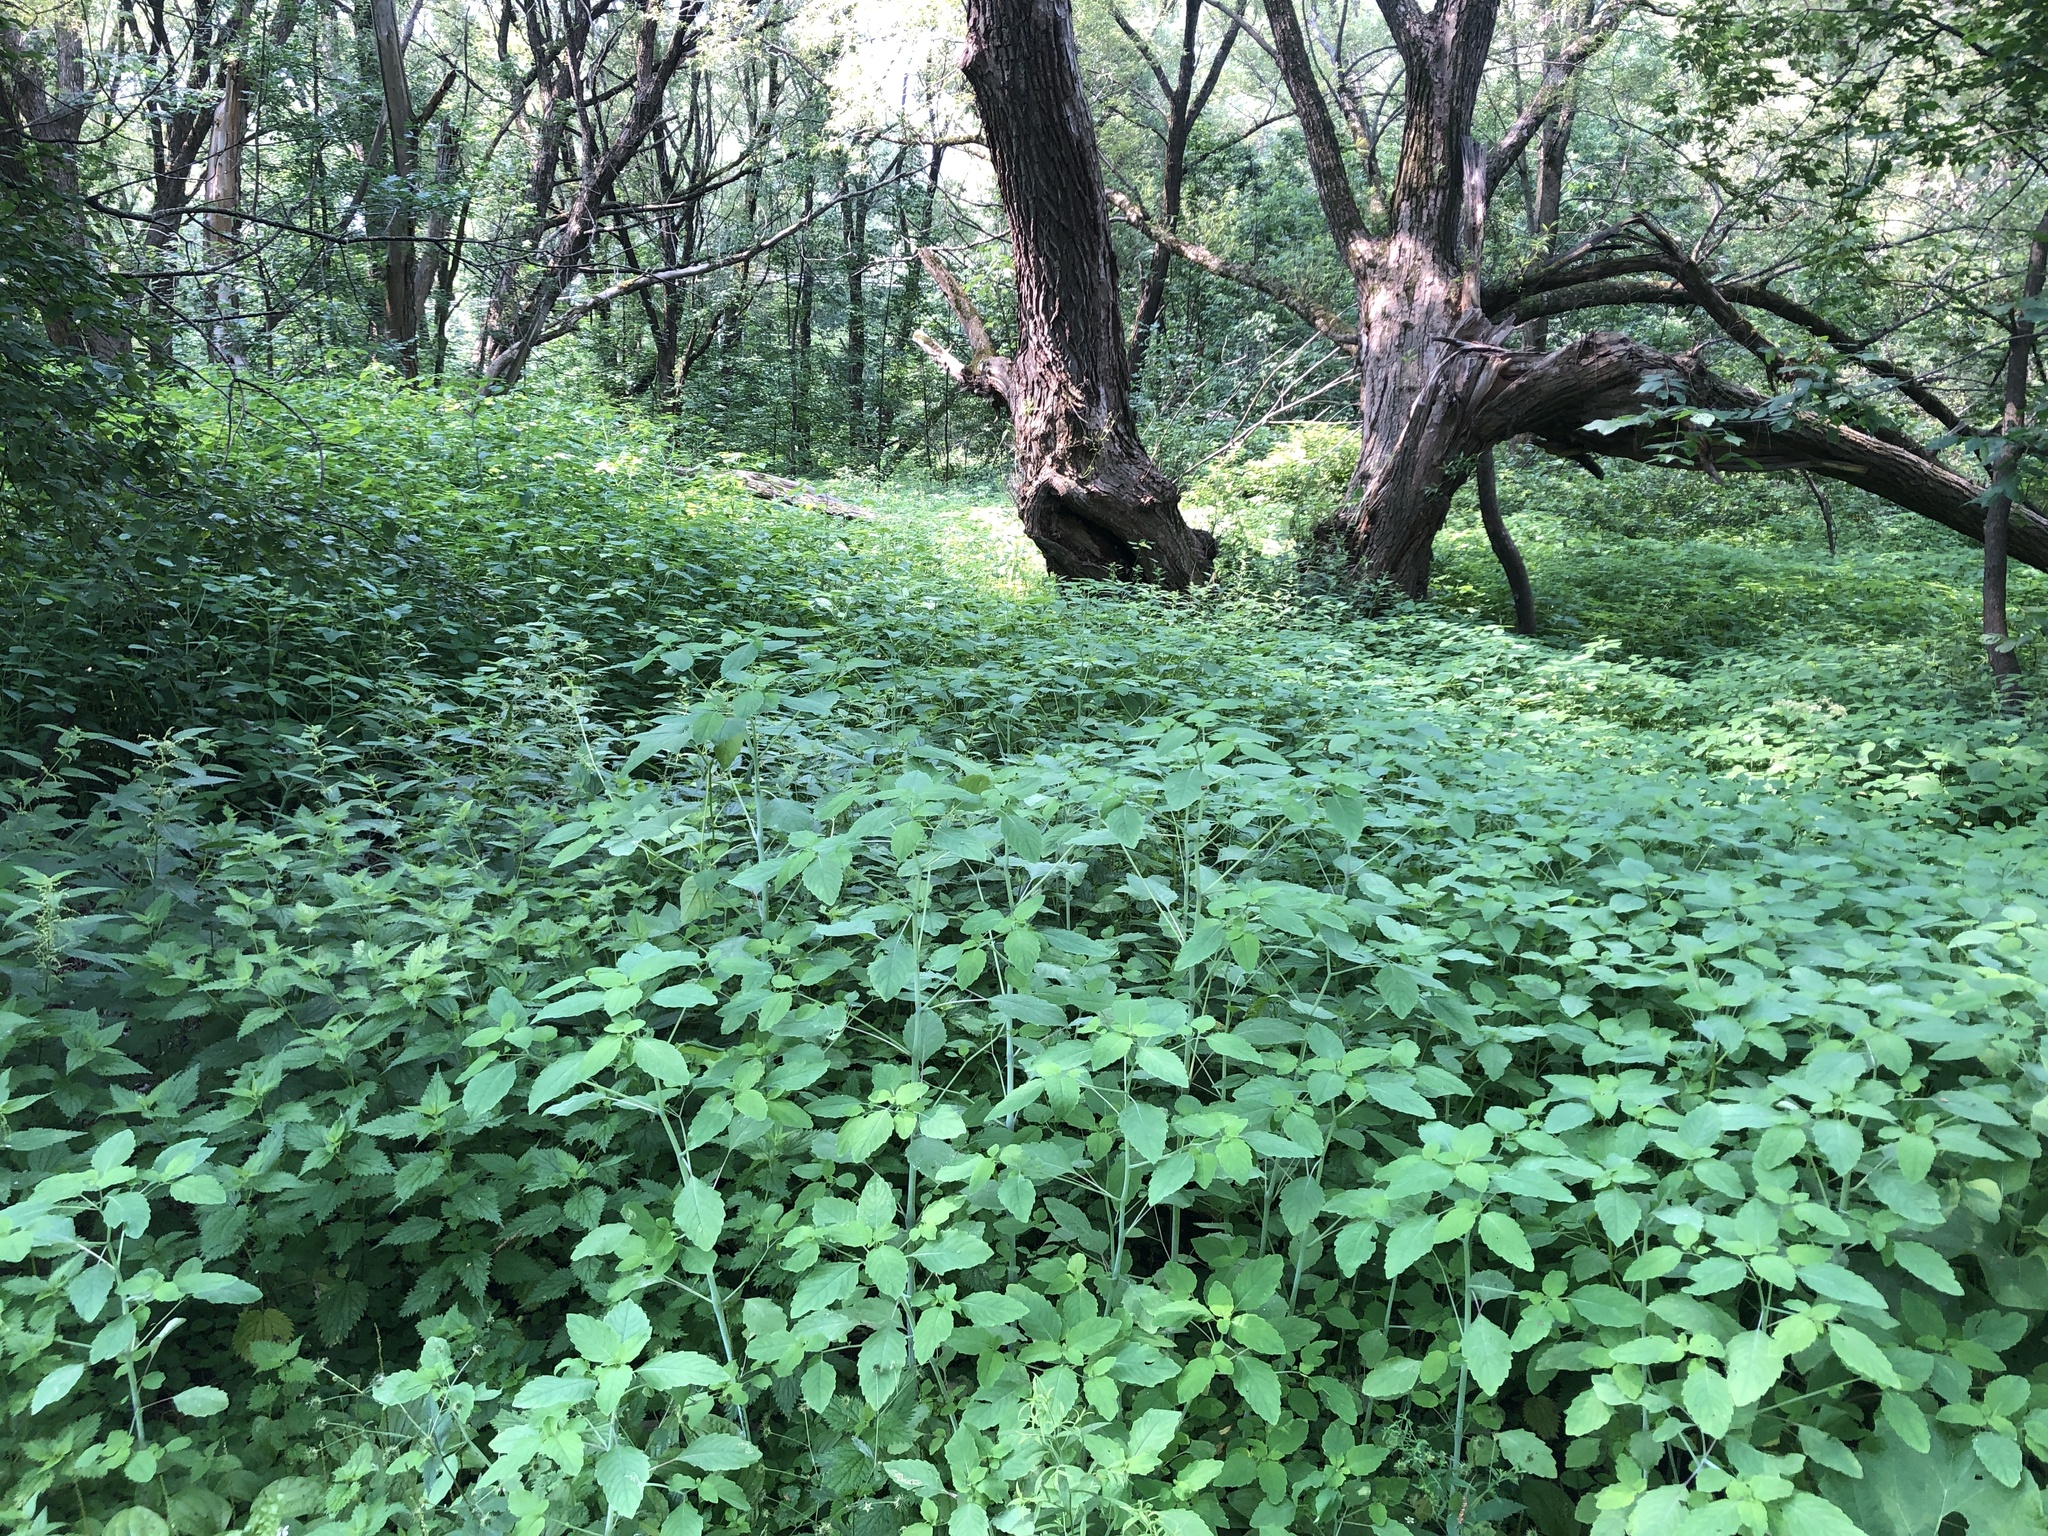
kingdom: Plantae
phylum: Tracheophyta
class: Magnoliopsida
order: Ericales
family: Balsaminaceae
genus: Impatiens
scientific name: Impatiens capensis
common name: Orange balsam
